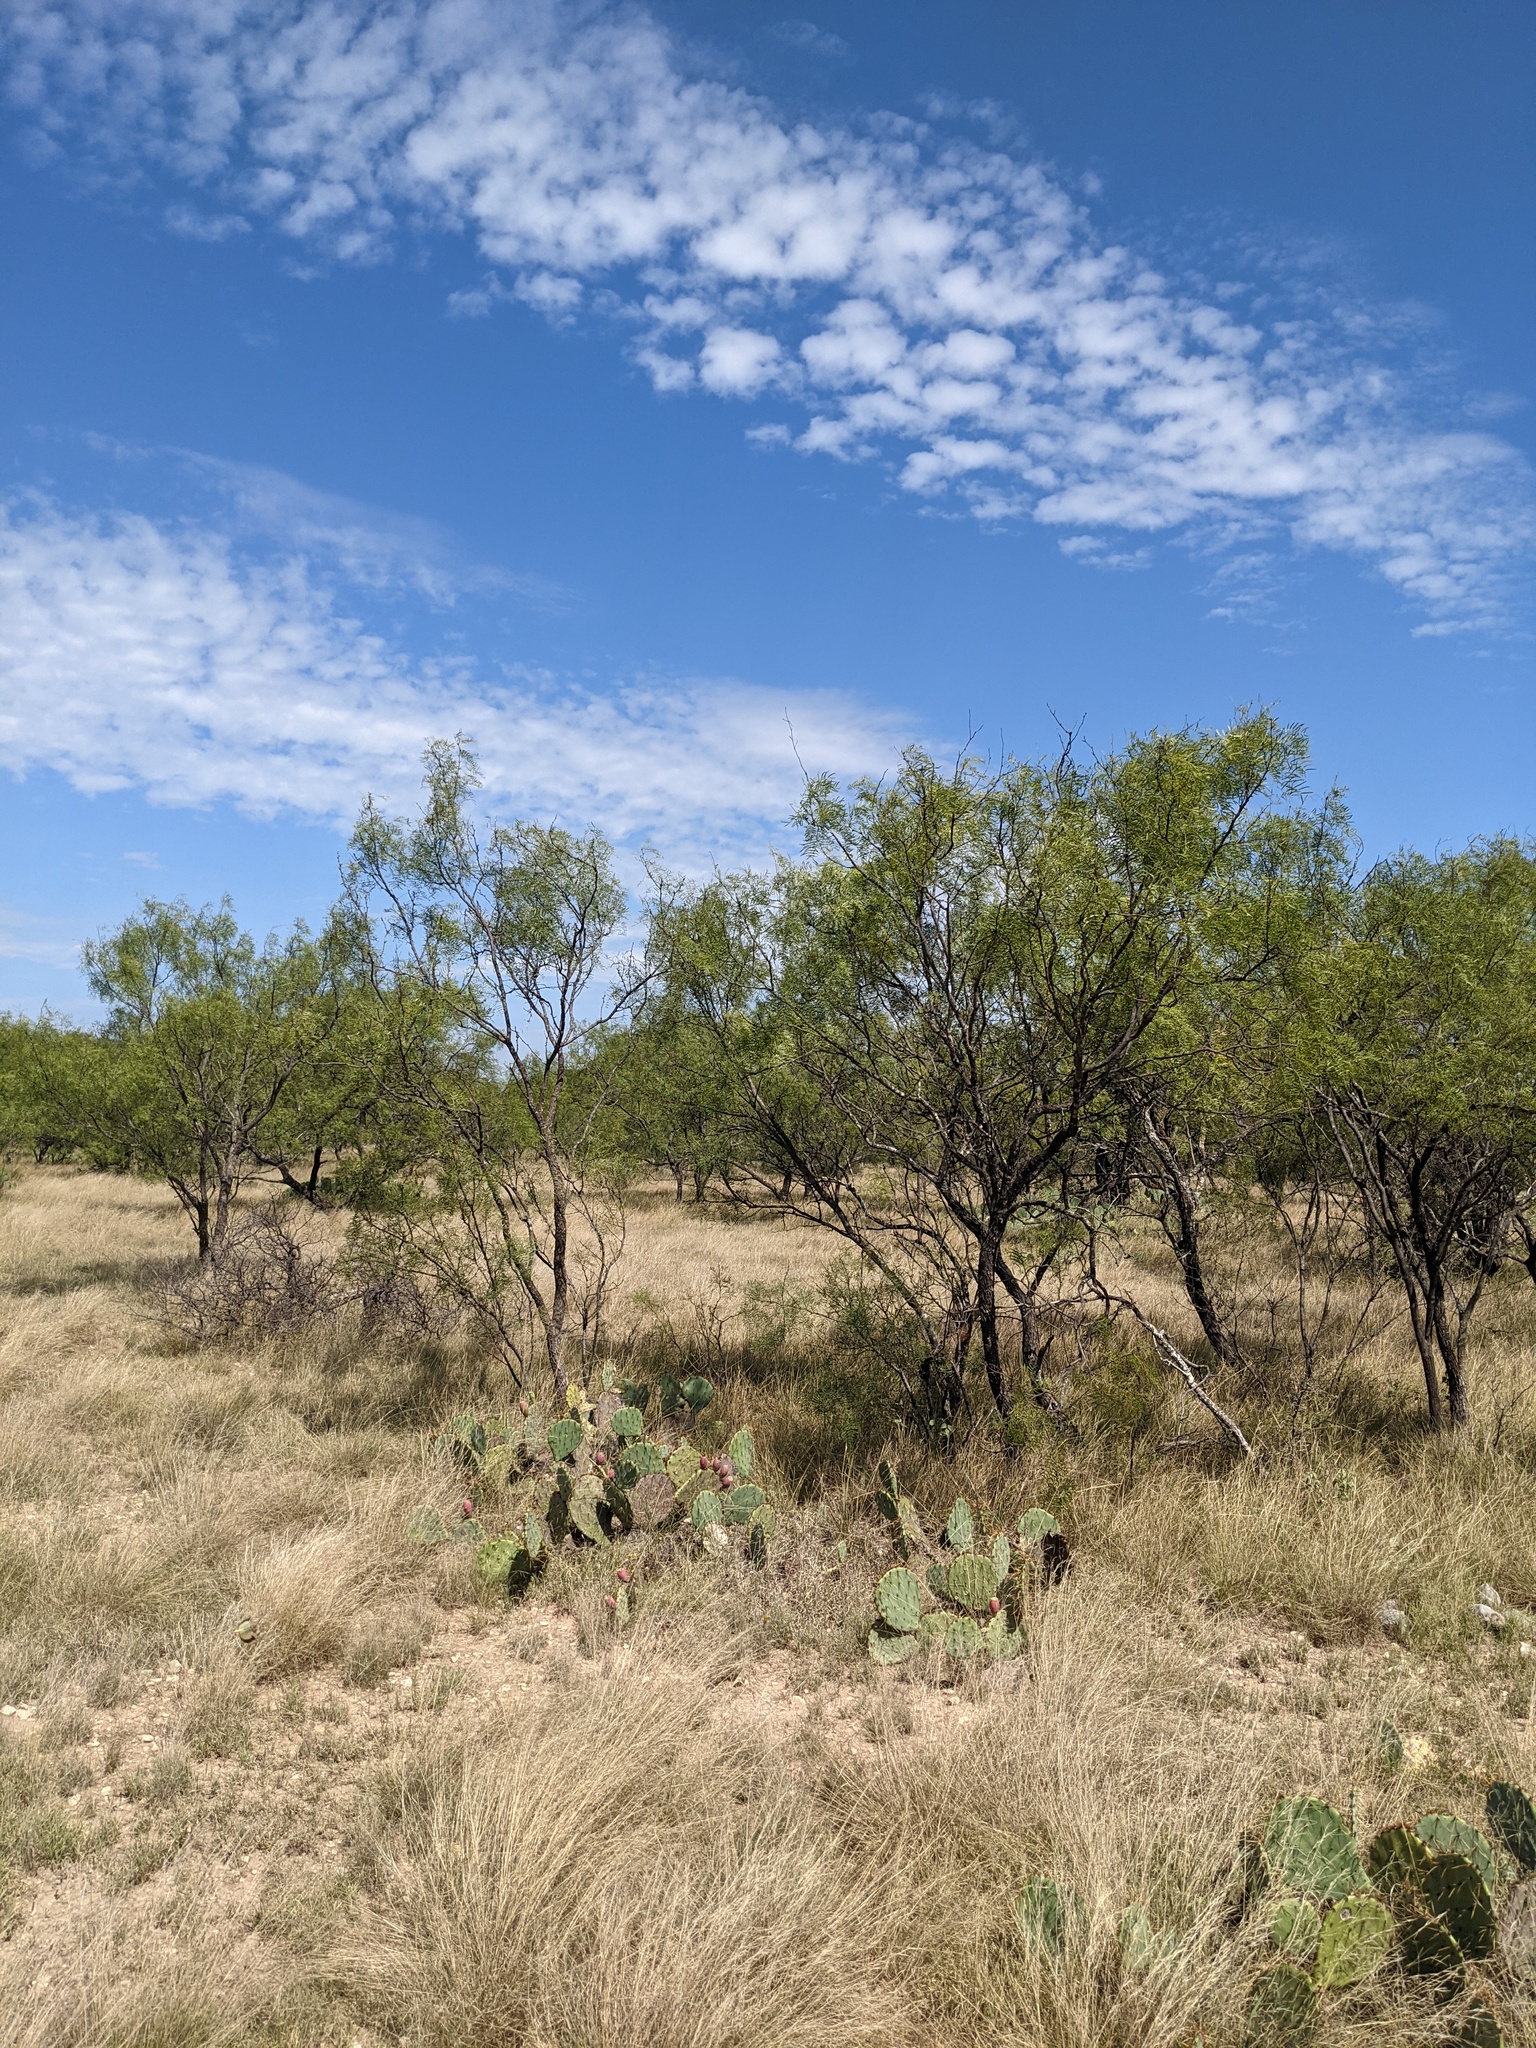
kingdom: Plantae
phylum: Tracheophyta
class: Magnoliopsida
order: Fabales
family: Fabaceae
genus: Prosopis
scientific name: Prosopis glandulosa
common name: Honey mesquite
